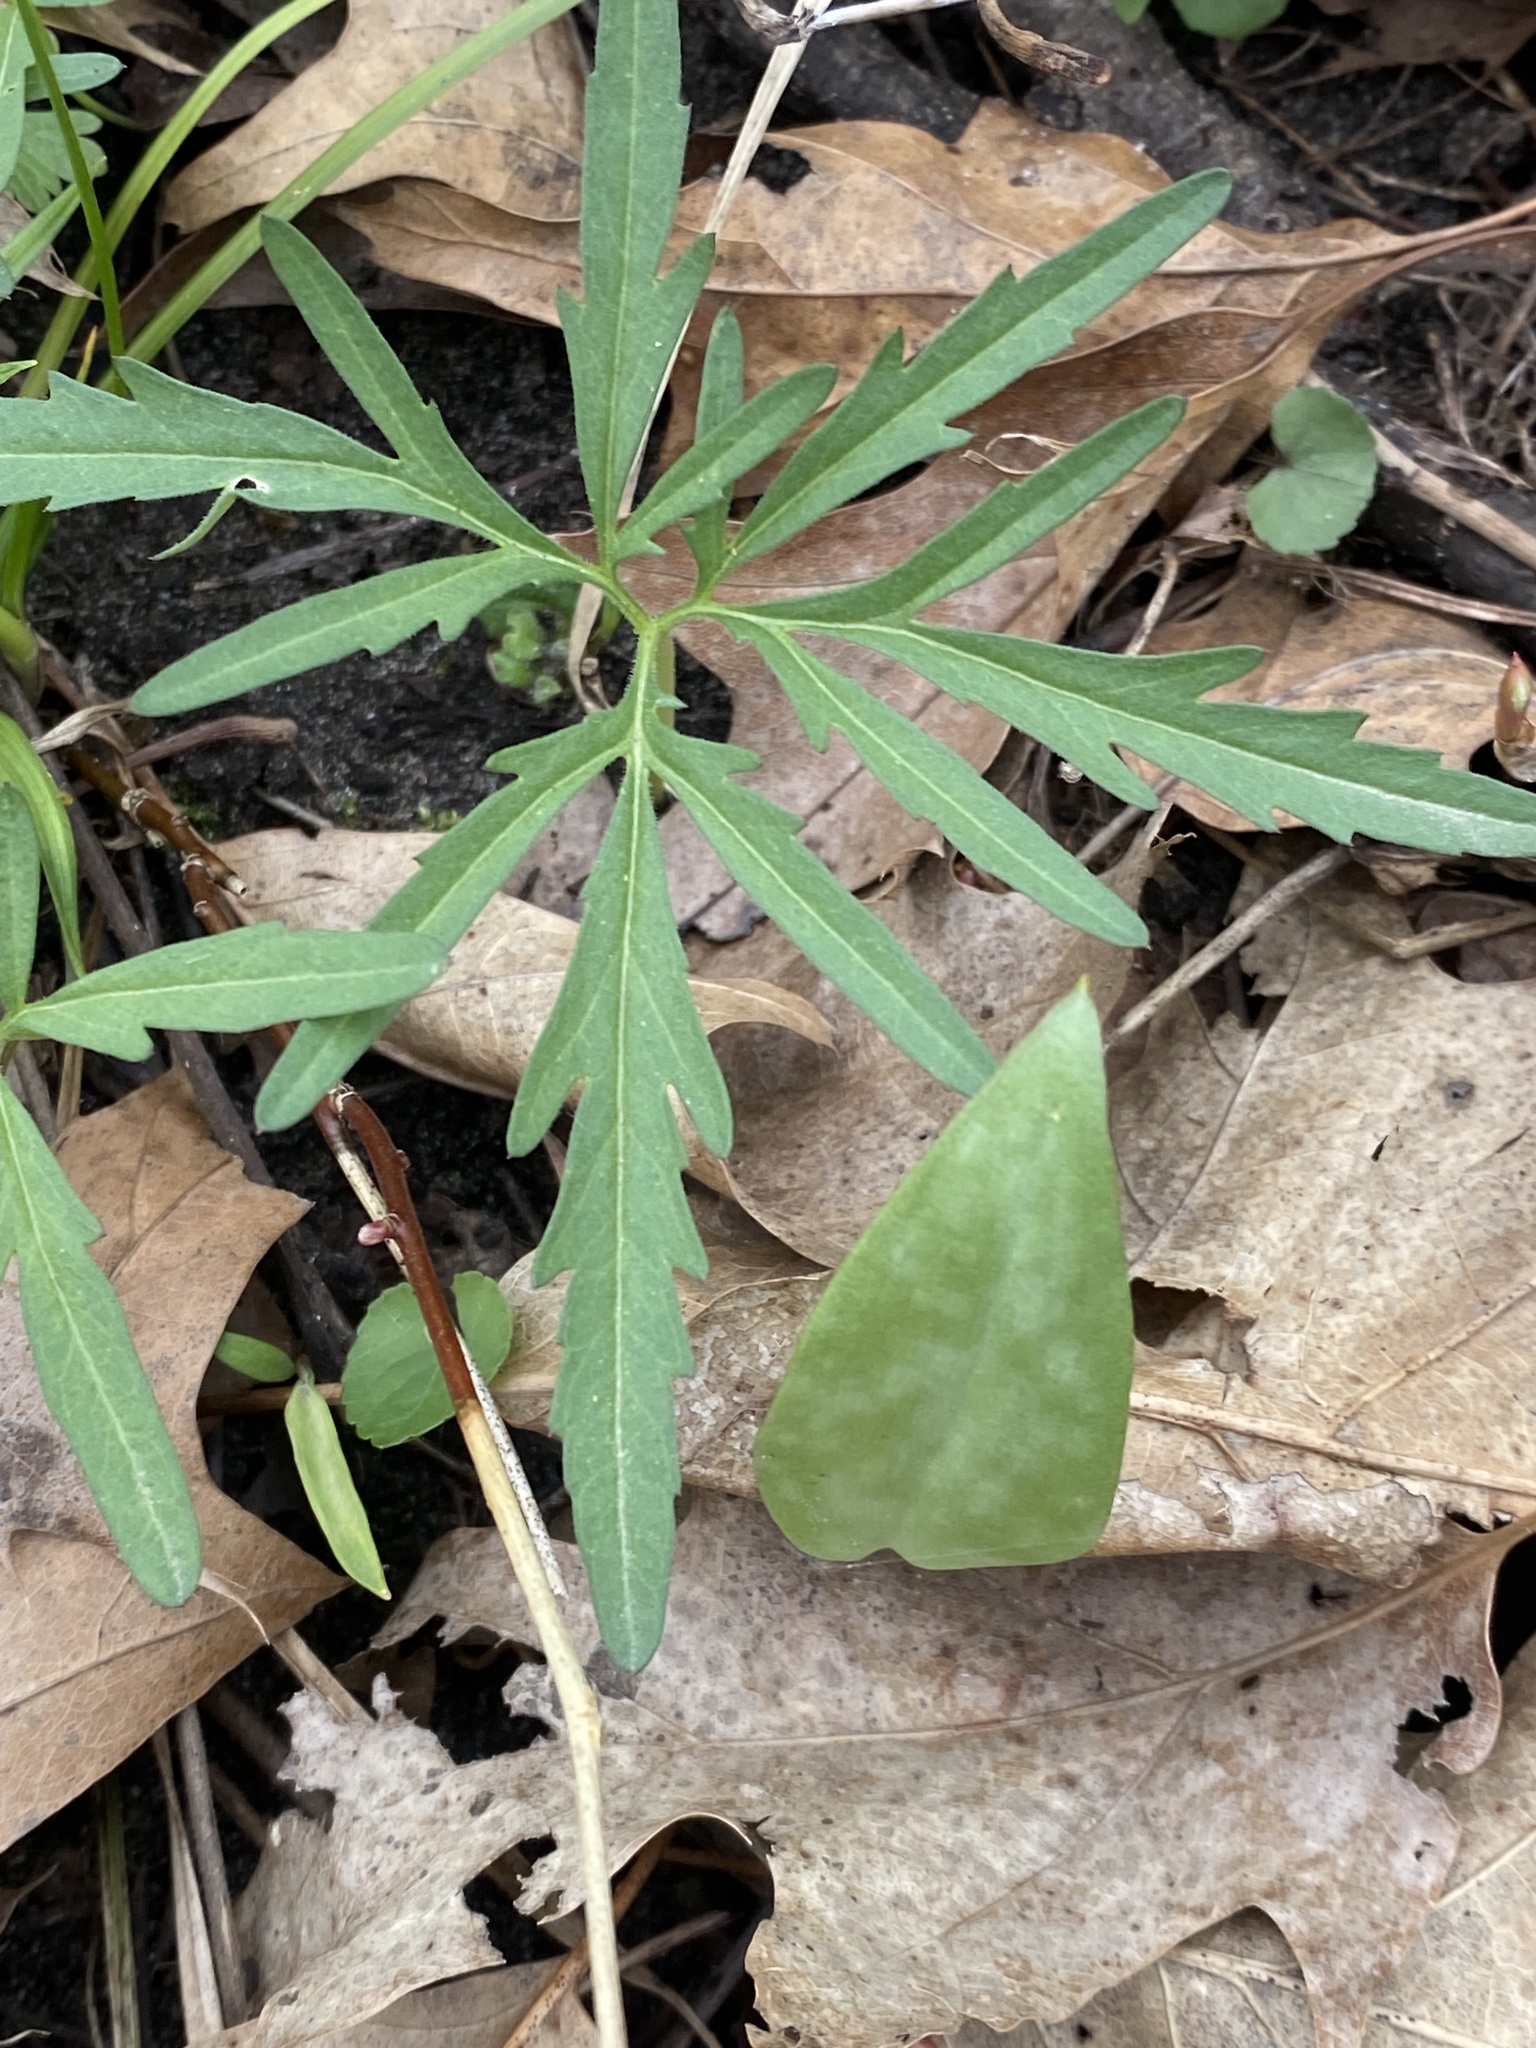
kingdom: Plantae
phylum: Tracheophyta
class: Magnoliopsida
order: Brassicales
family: Brassicaceae
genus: Cardamine
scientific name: Cardamine concatenata
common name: Cut-leaf toothcup
